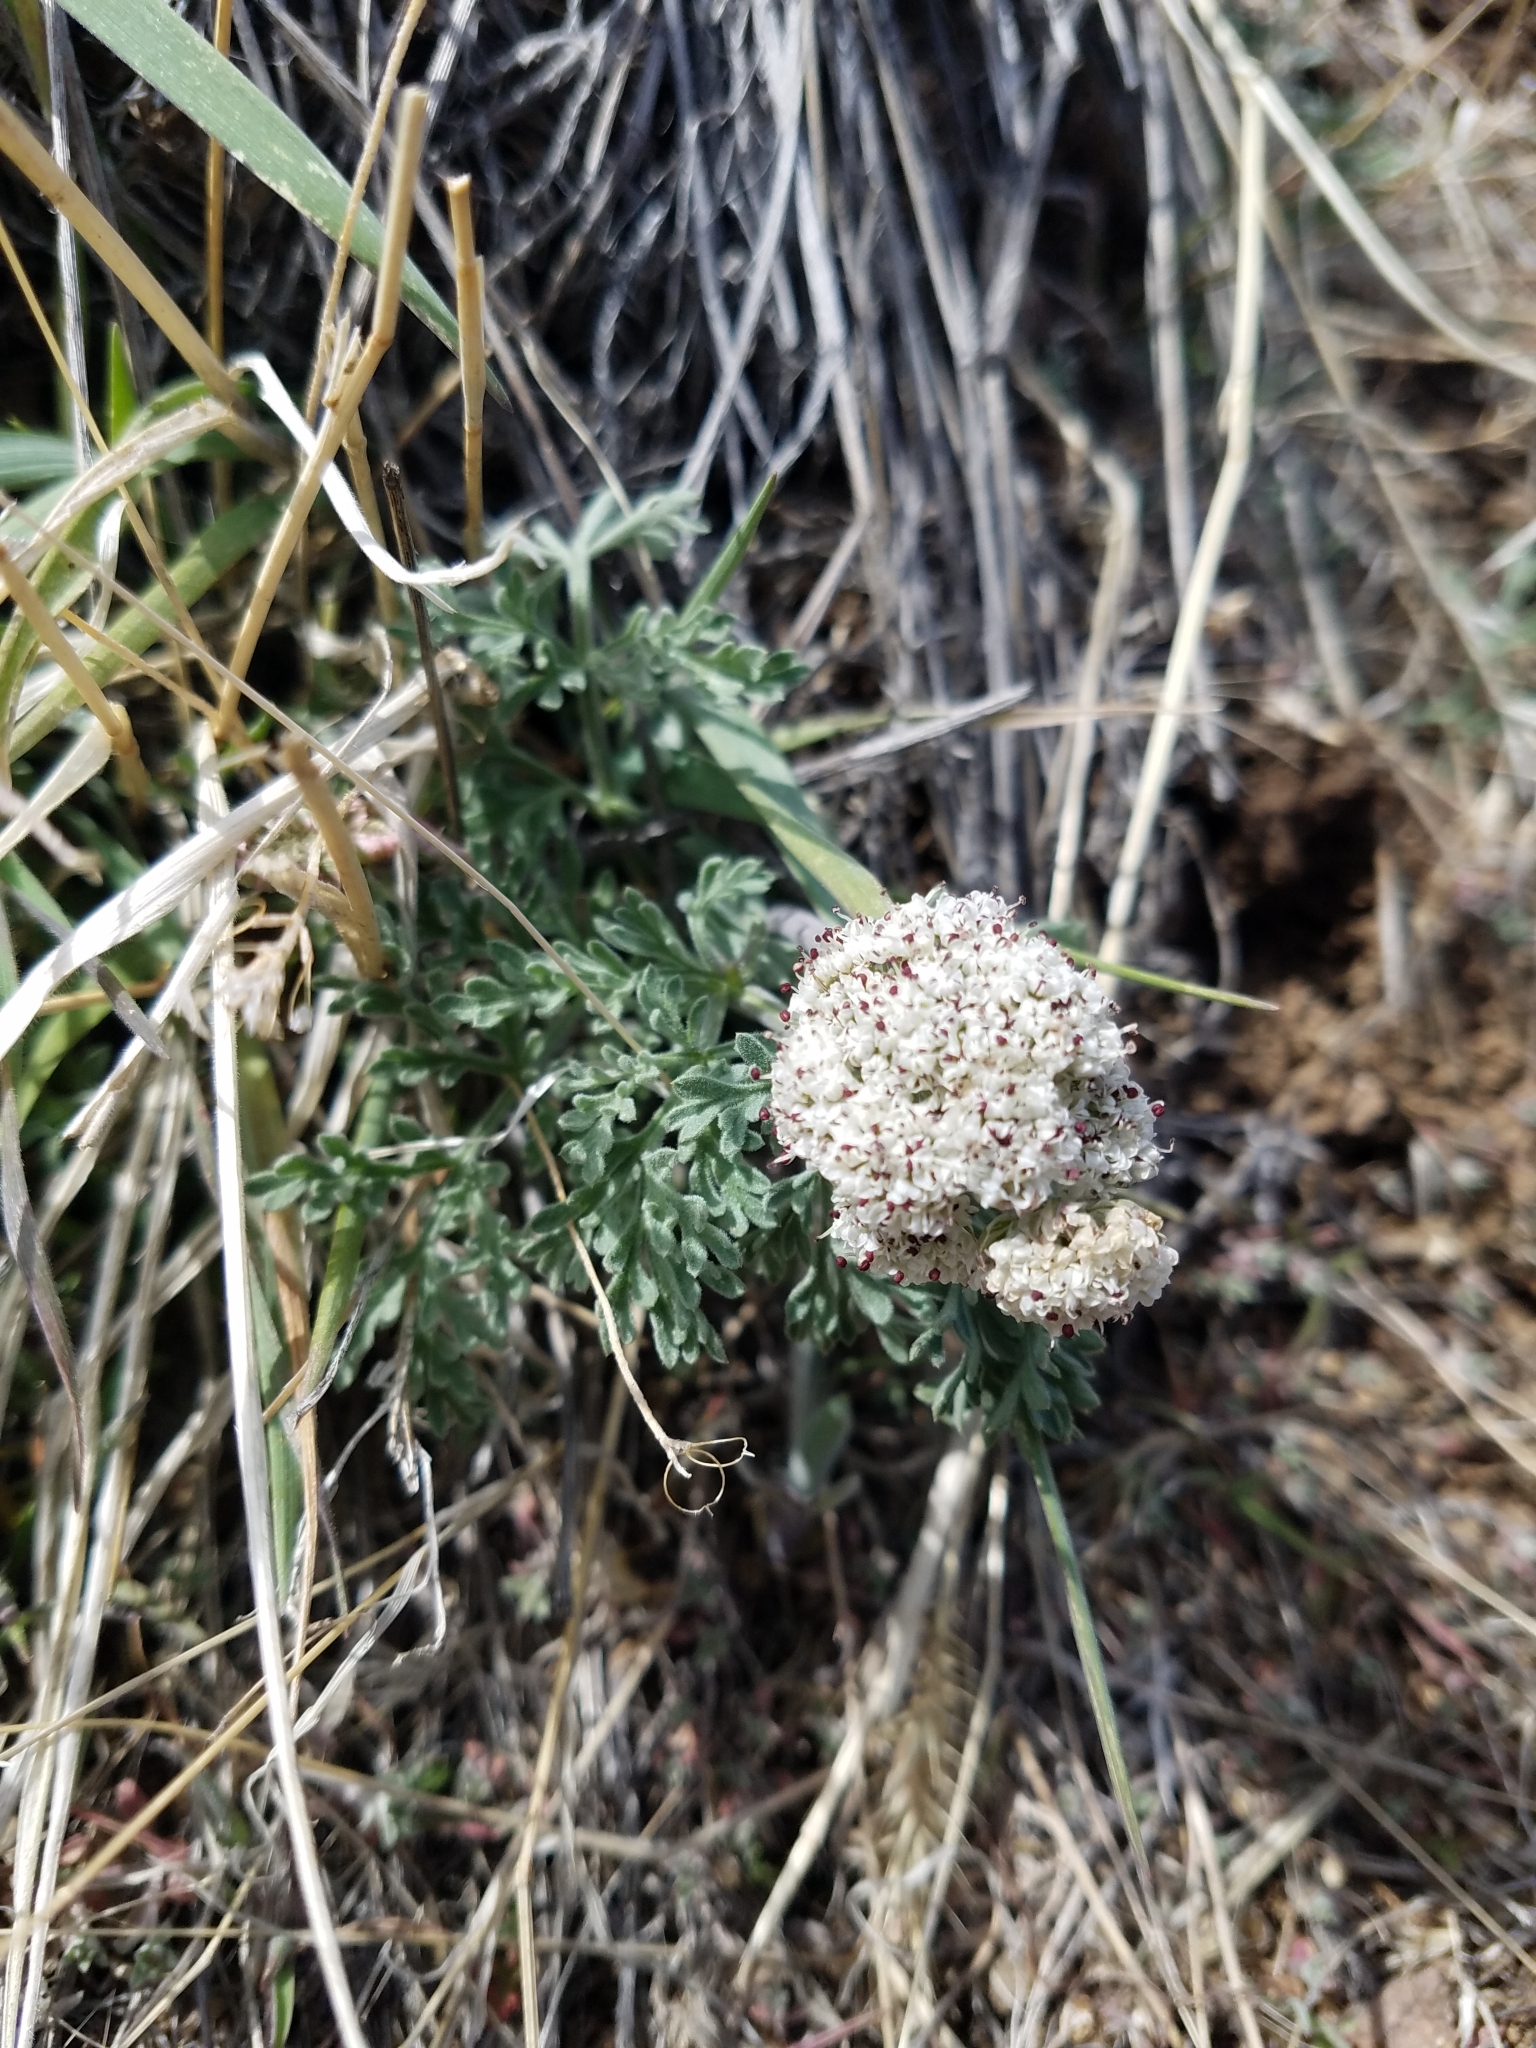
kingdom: Plantae
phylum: Tracheophyta
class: Magnoliopsida
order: Apiales
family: Apiaceae
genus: Lomatium
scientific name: Lomatium nevadense
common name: Nevada lomatium
